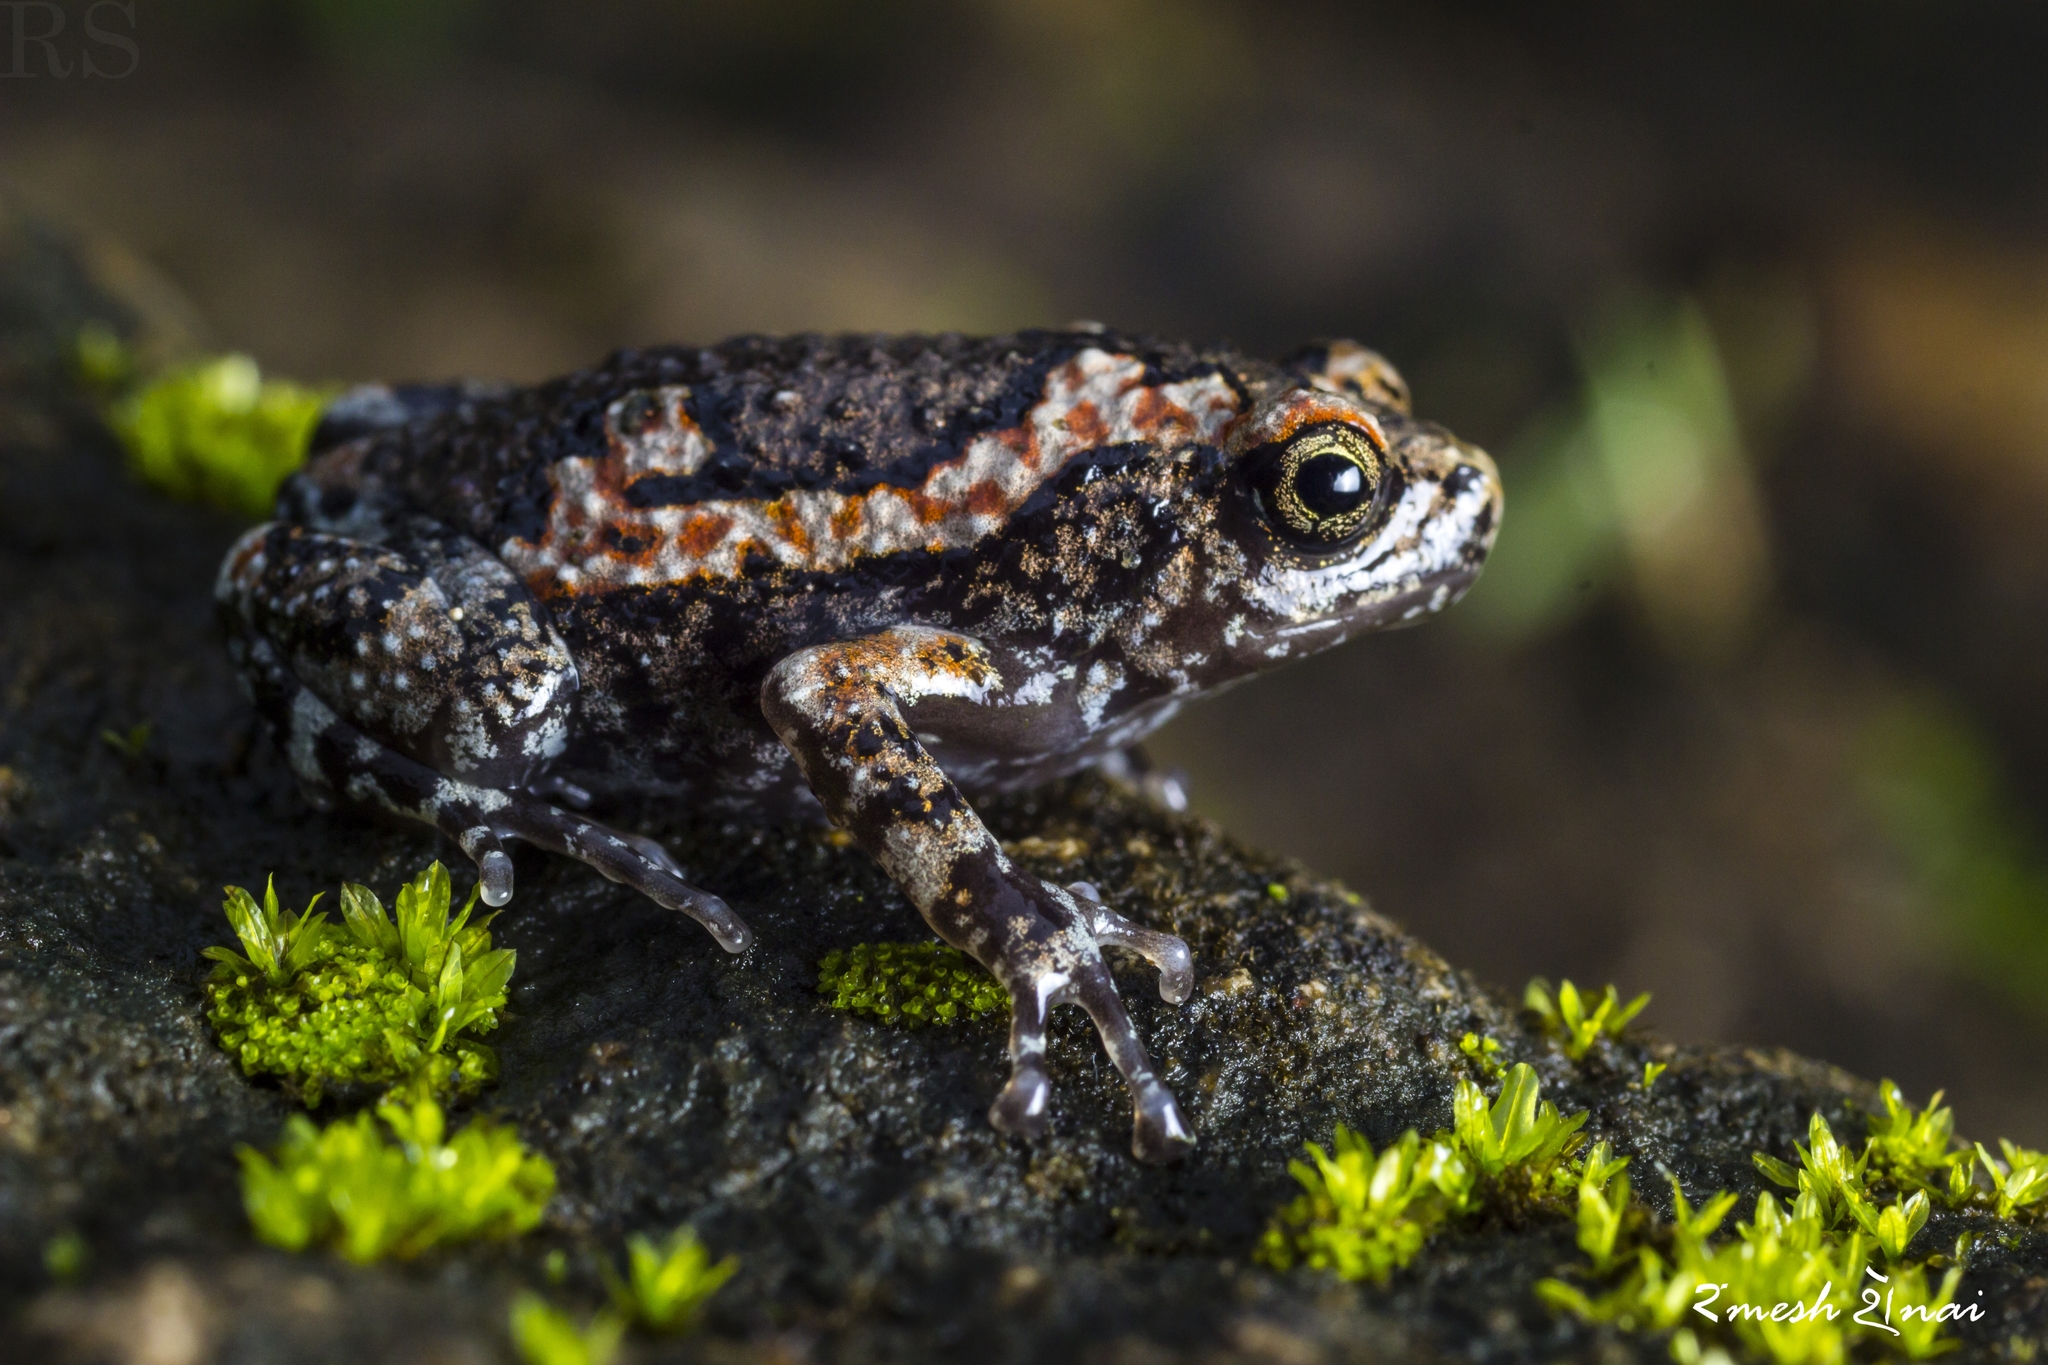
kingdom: Animalia
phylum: Chordata
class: Amphibia
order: Anura
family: Microhylidae
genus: Uperodon
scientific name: Uperodon taprobanicus
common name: Ceylon kaloula
